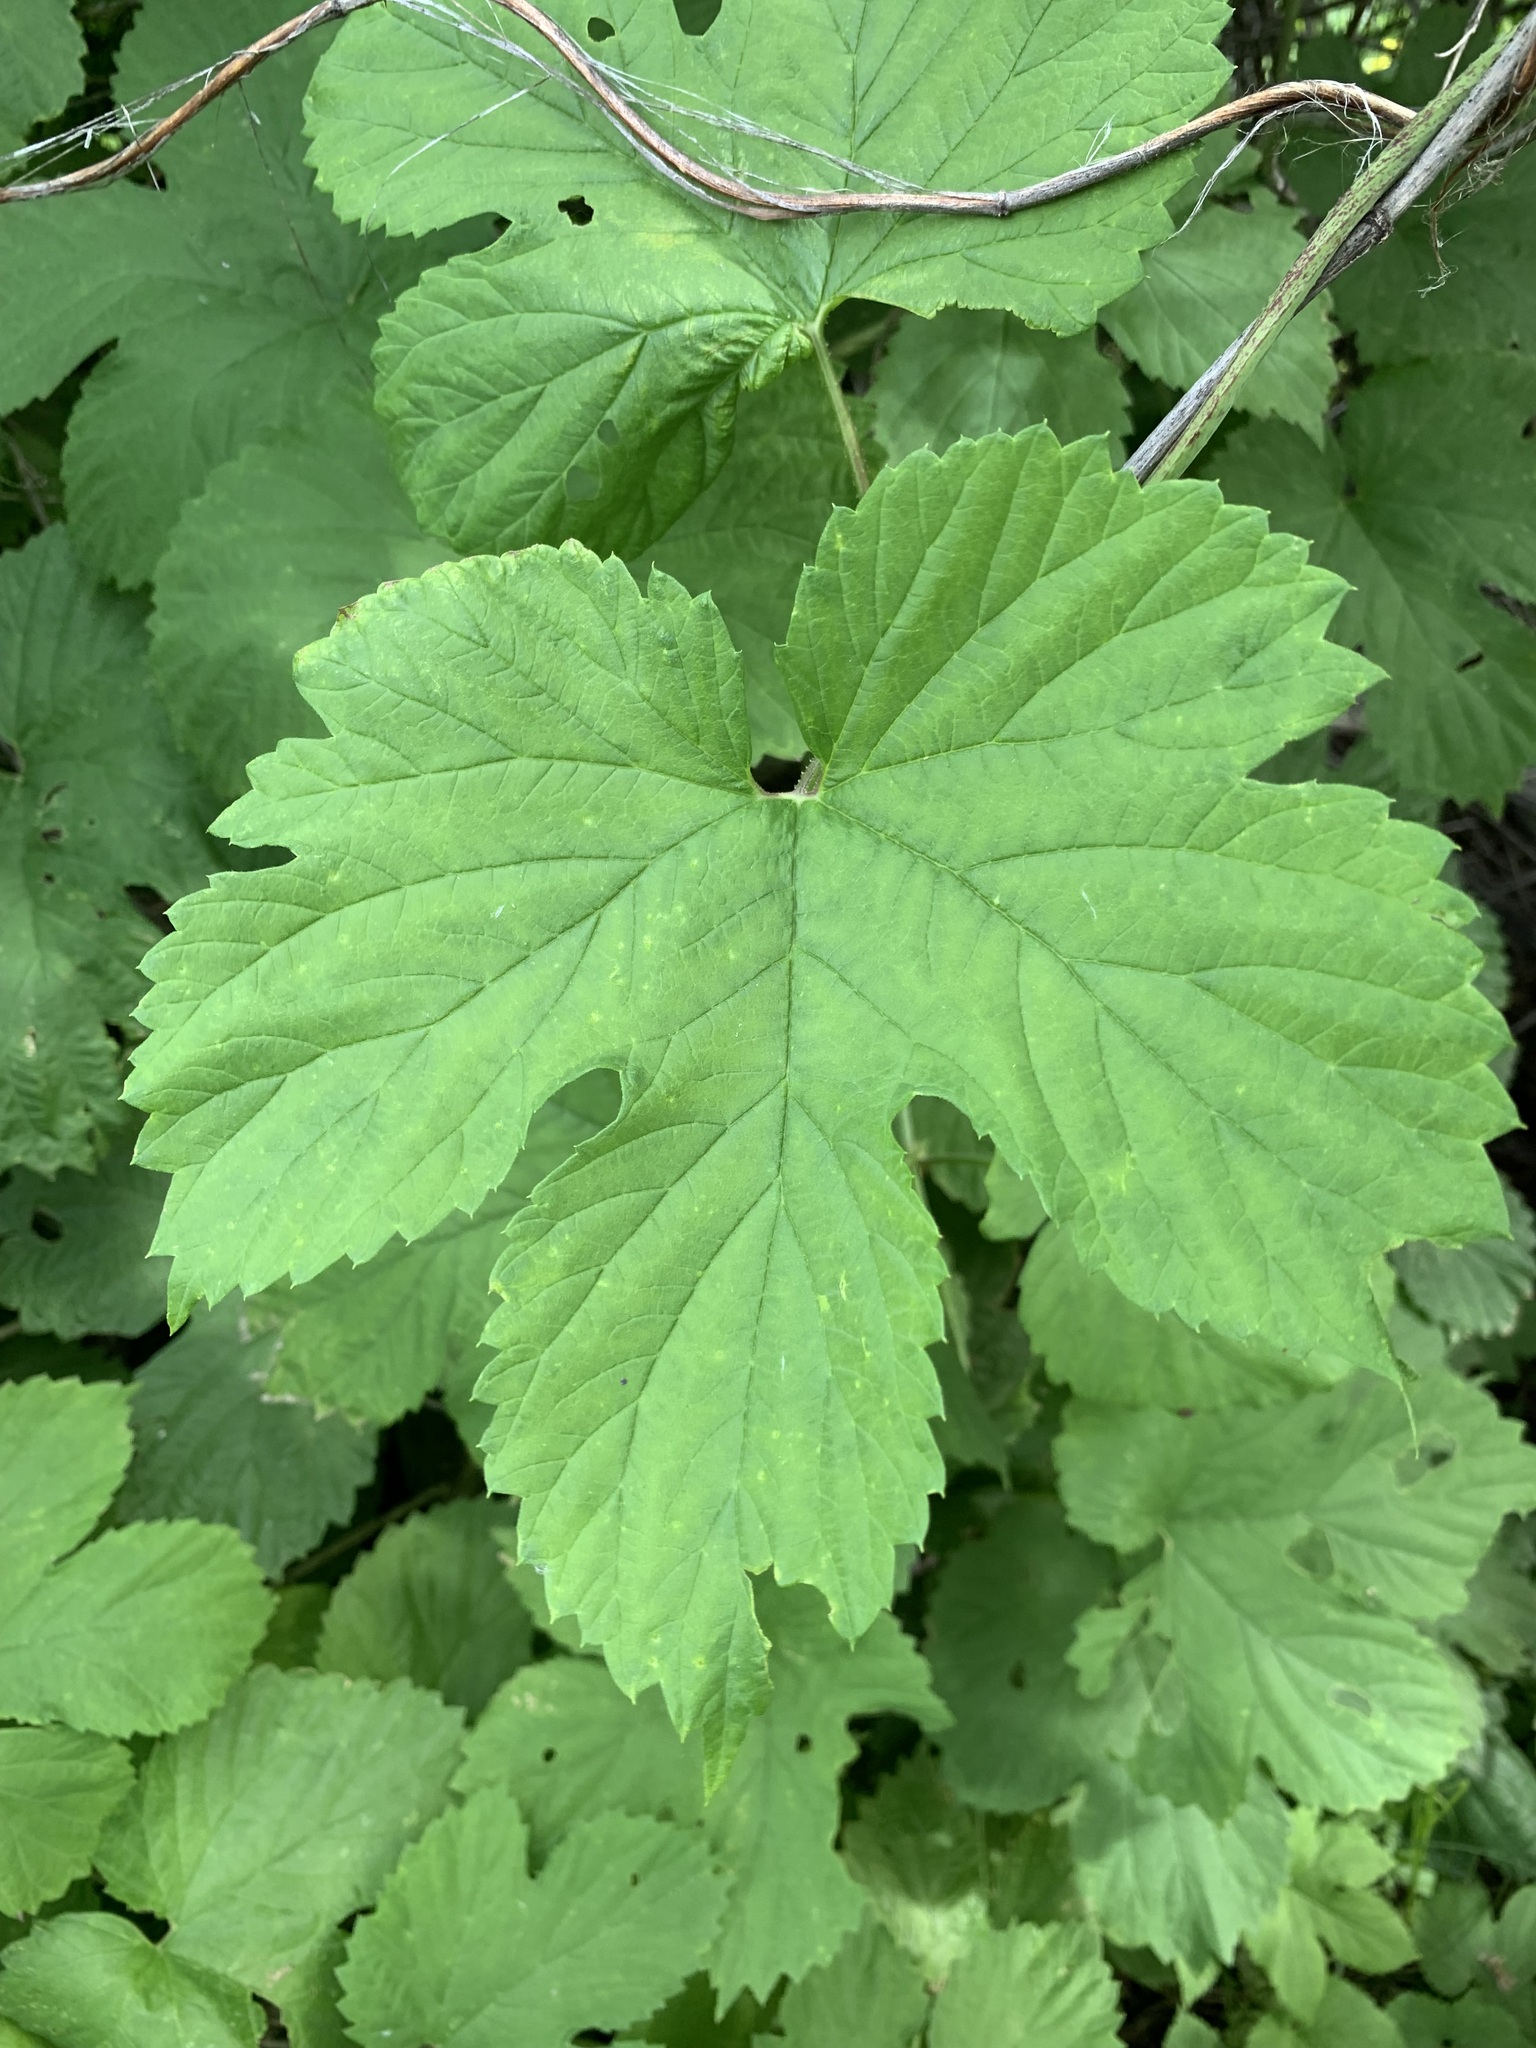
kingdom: Plantae
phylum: Tracheophyta
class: Magnoliopsida
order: Rosales
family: Cannabaceae
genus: Humulus
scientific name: Humulus lupulus
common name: Hop
